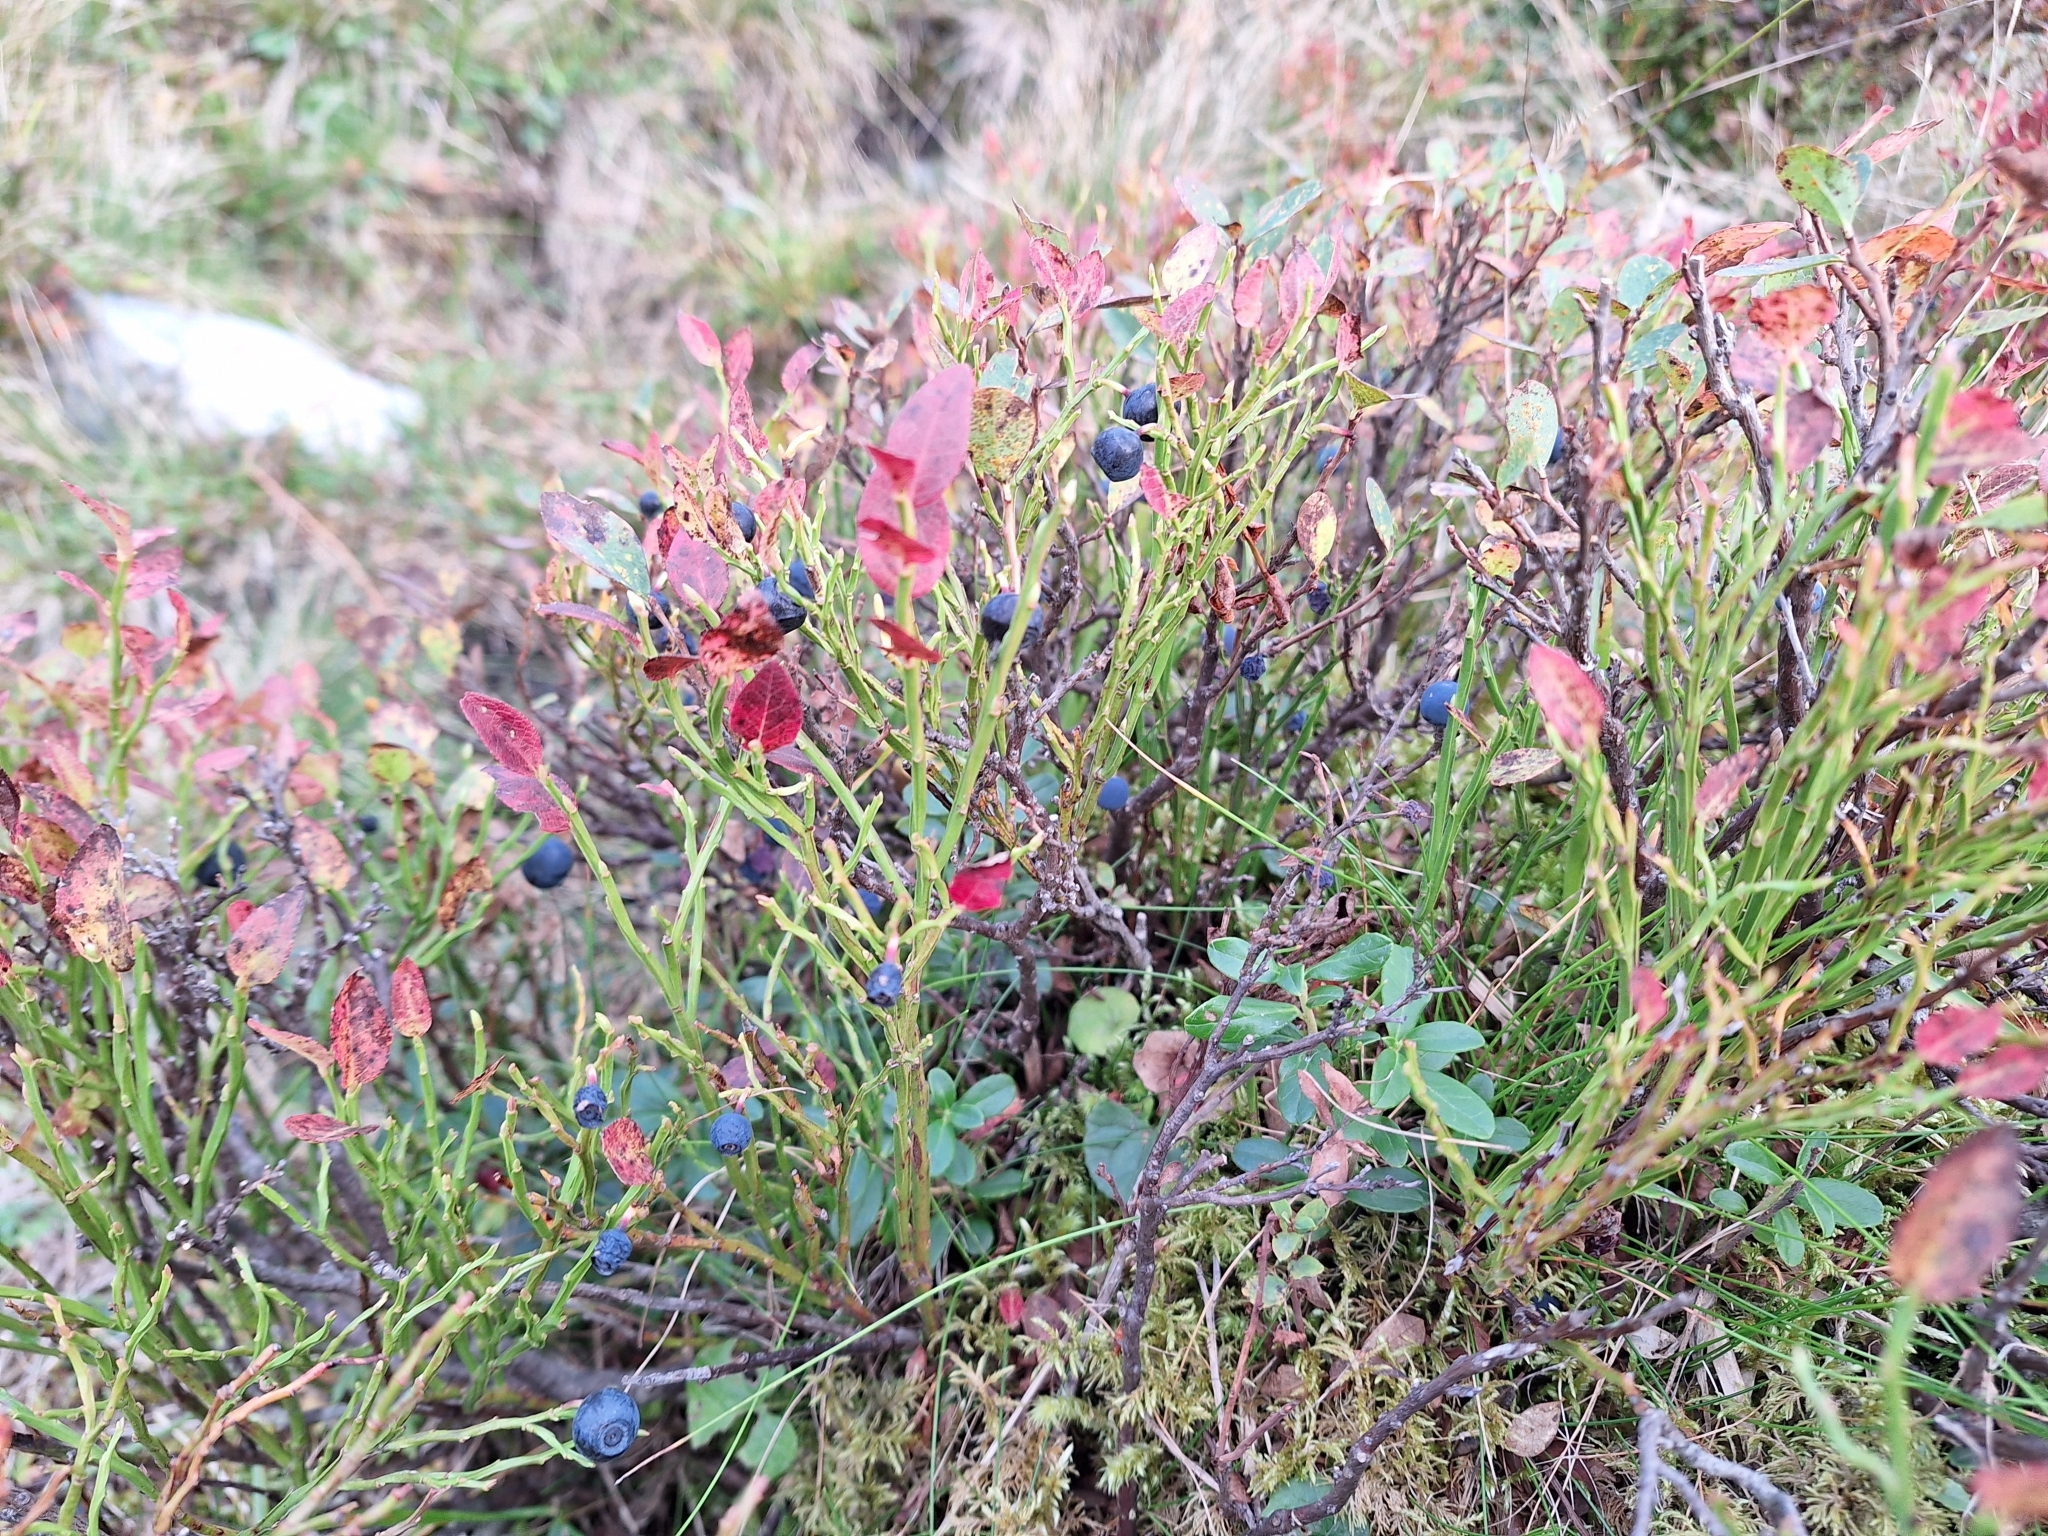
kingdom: Plantae
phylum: Tracheophyta
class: Magnoliopsida
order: Ericales
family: Ericaceae
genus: Vaccinium
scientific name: Vaccinium myrtillus
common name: Bilberry
